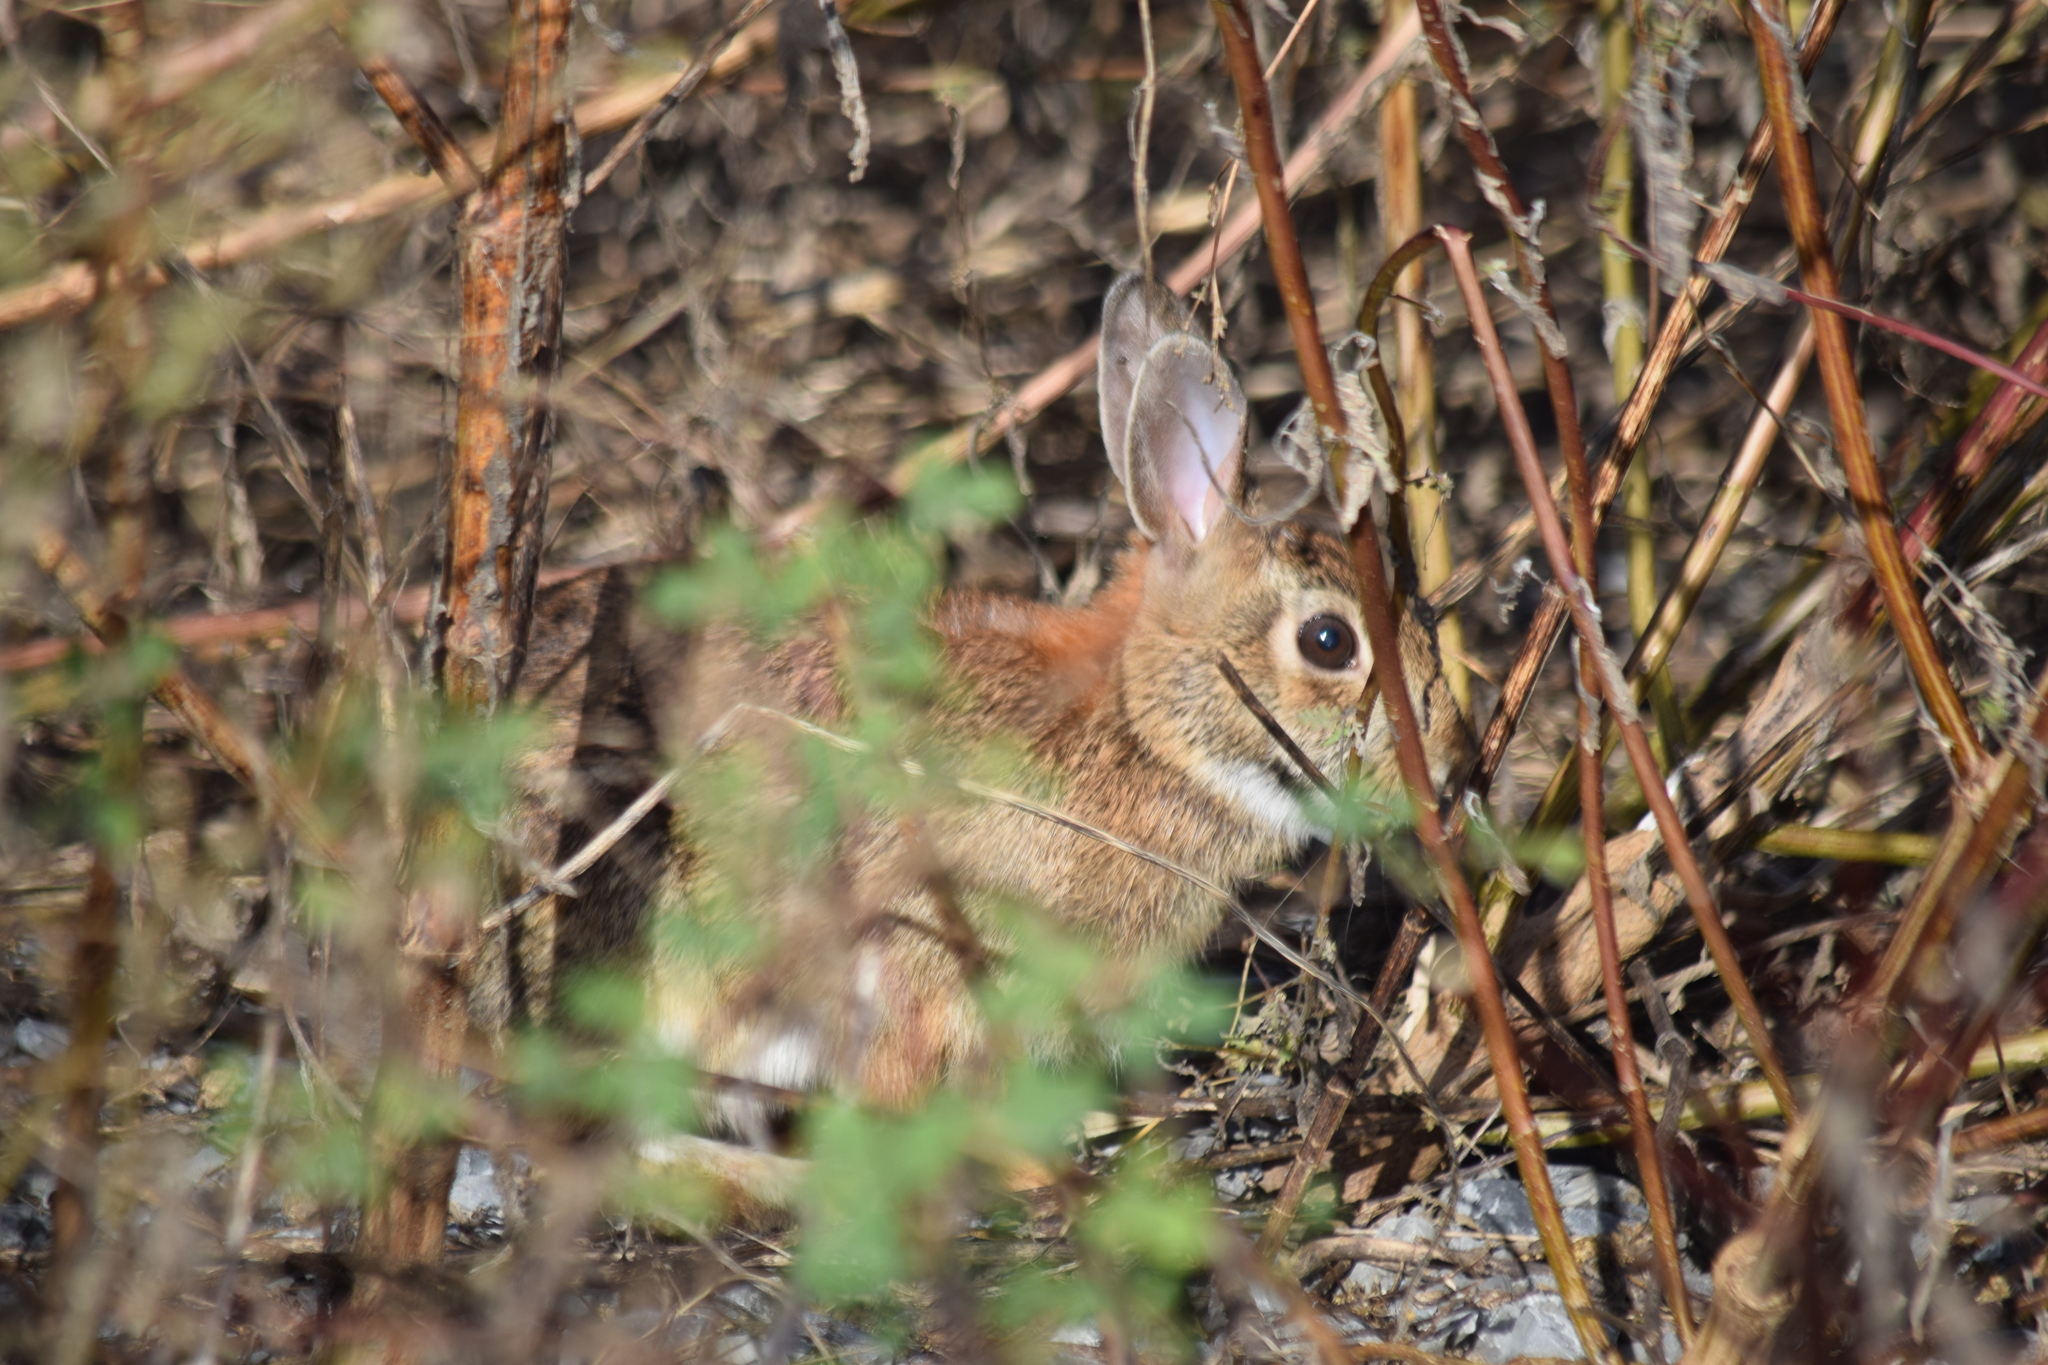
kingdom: Animalia
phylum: Chordata
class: Mammalia
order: Lagomorpha
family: Leporidae
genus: Sylvilagus
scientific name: Sylvilagus floridanus
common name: Eastern cottontail
